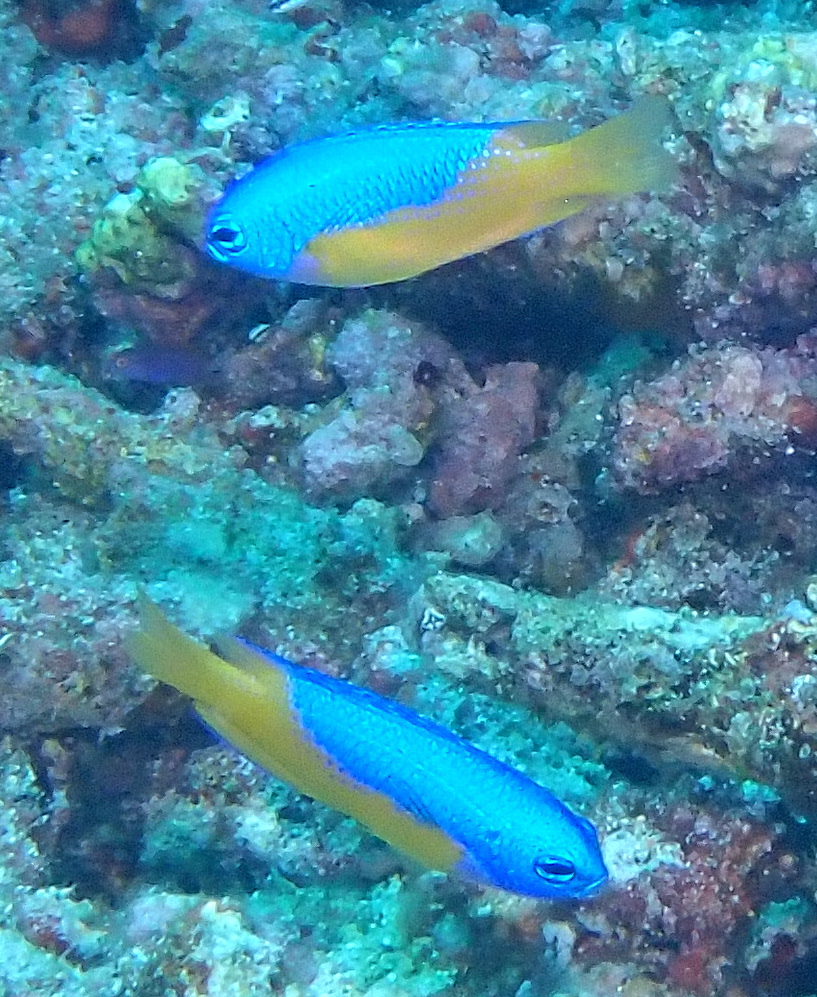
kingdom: Animalia
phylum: Chordata
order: Perciformes
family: Pomacentridae
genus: Pomacentrus
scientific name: Pomacentrus auriventris
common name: Goldbelly damsel
